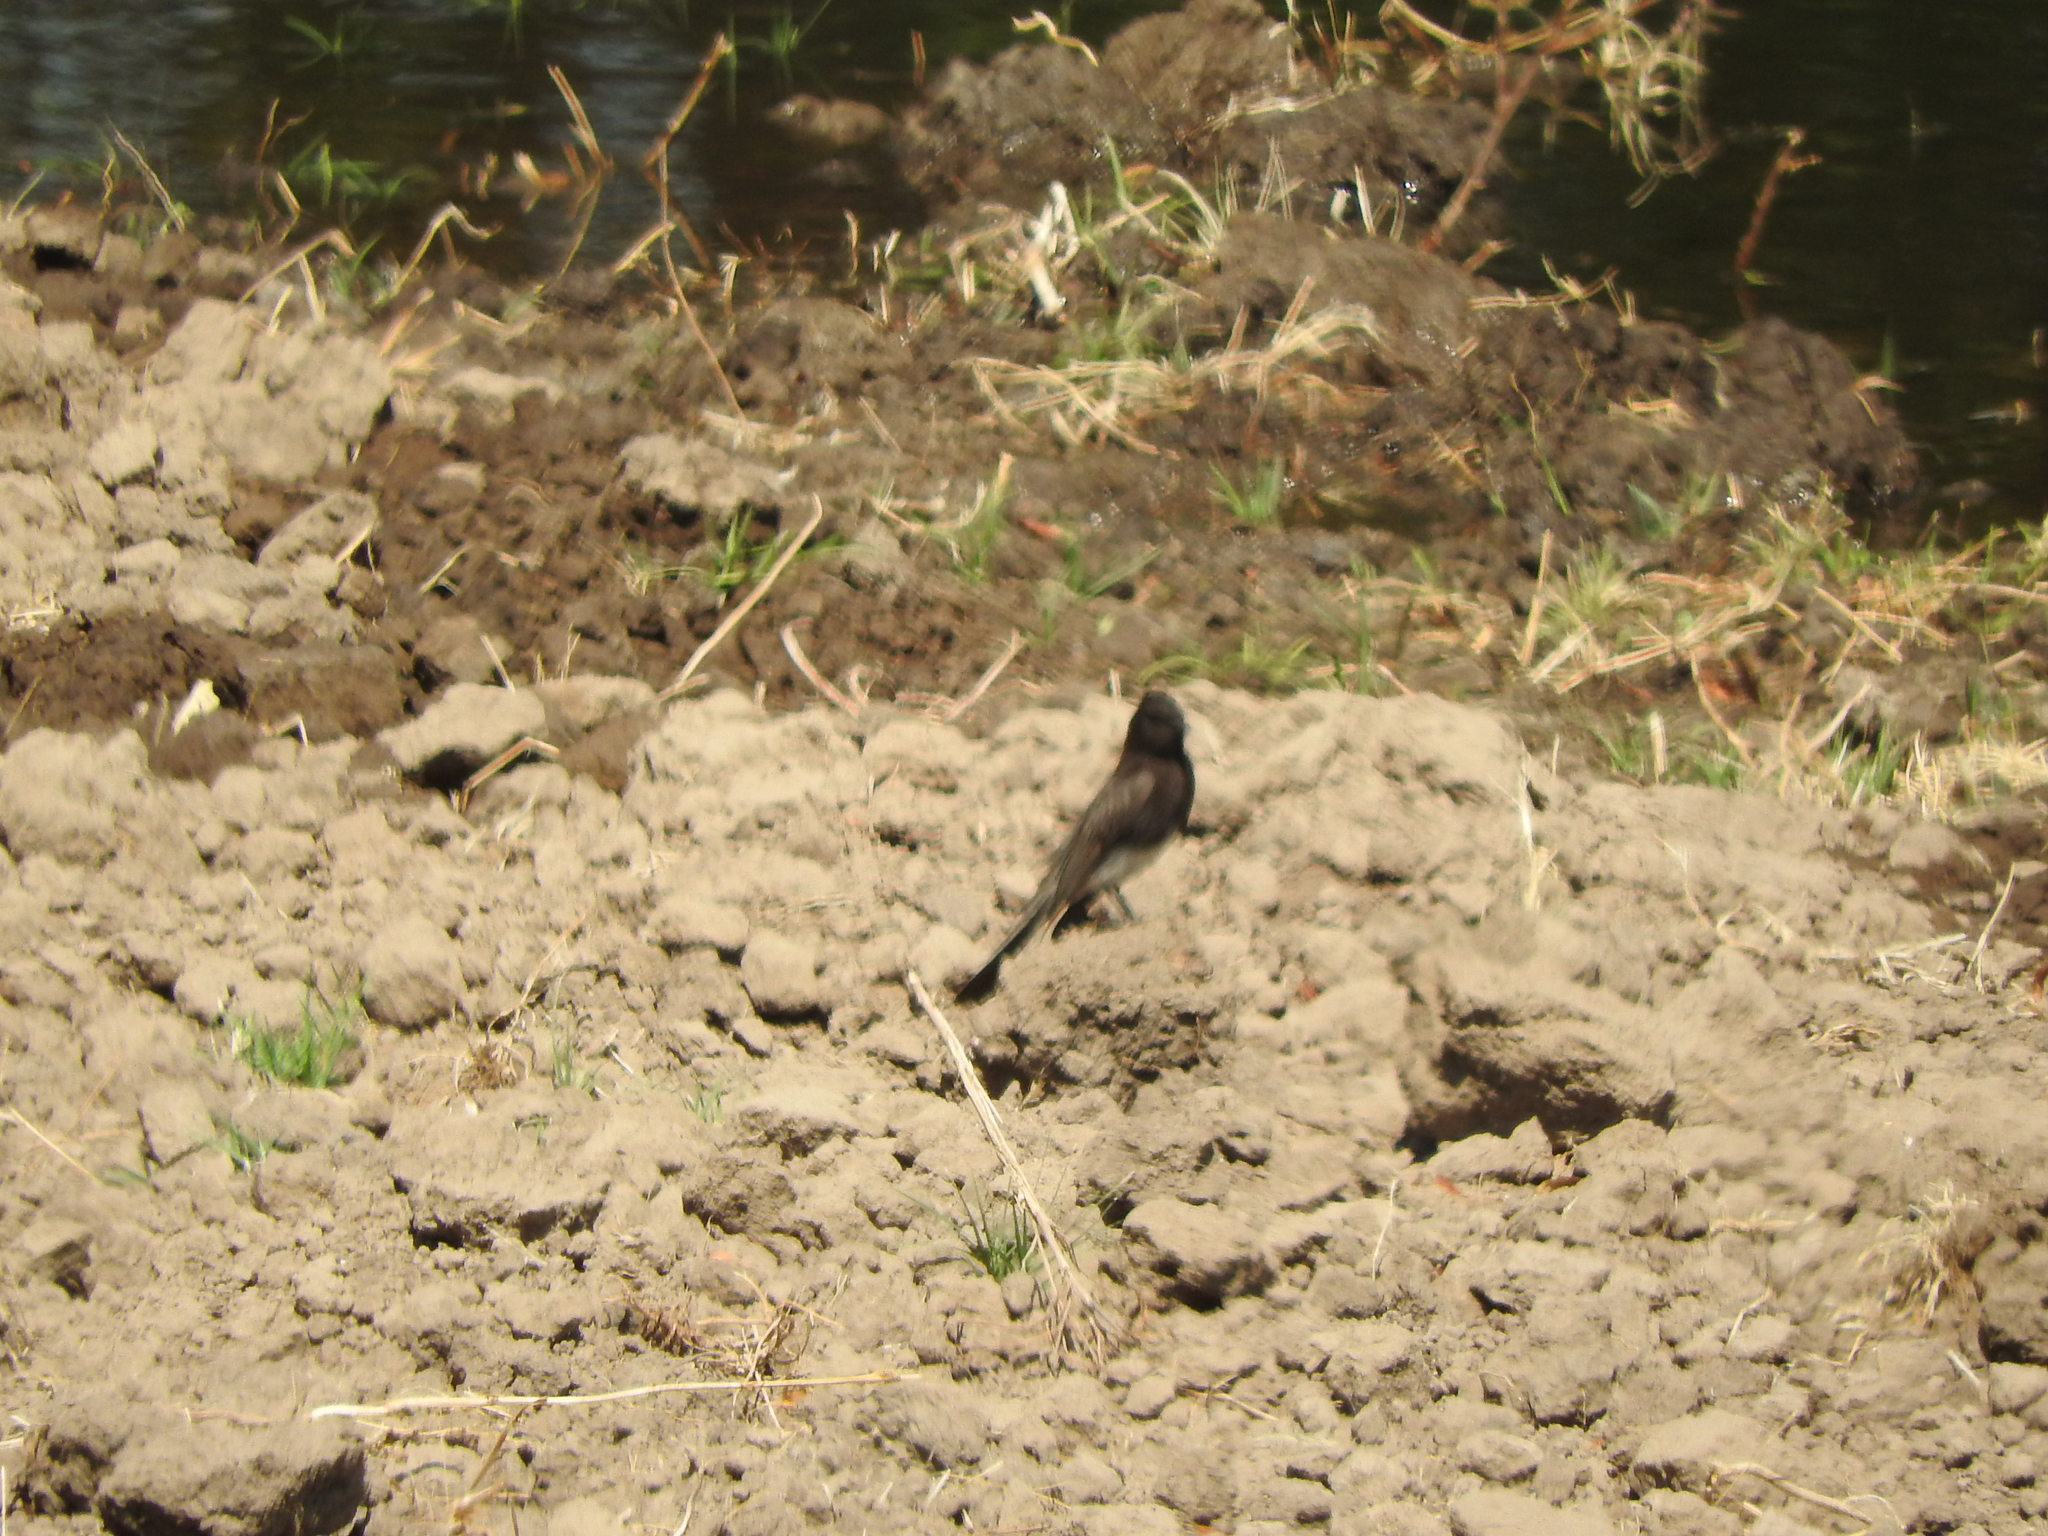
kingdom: Animalia
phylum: Chordata
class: Aves
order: Passeriformes
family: Tyrannidae
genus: Sayornis
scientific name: Sayornis nigricans
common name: Black phoebe
